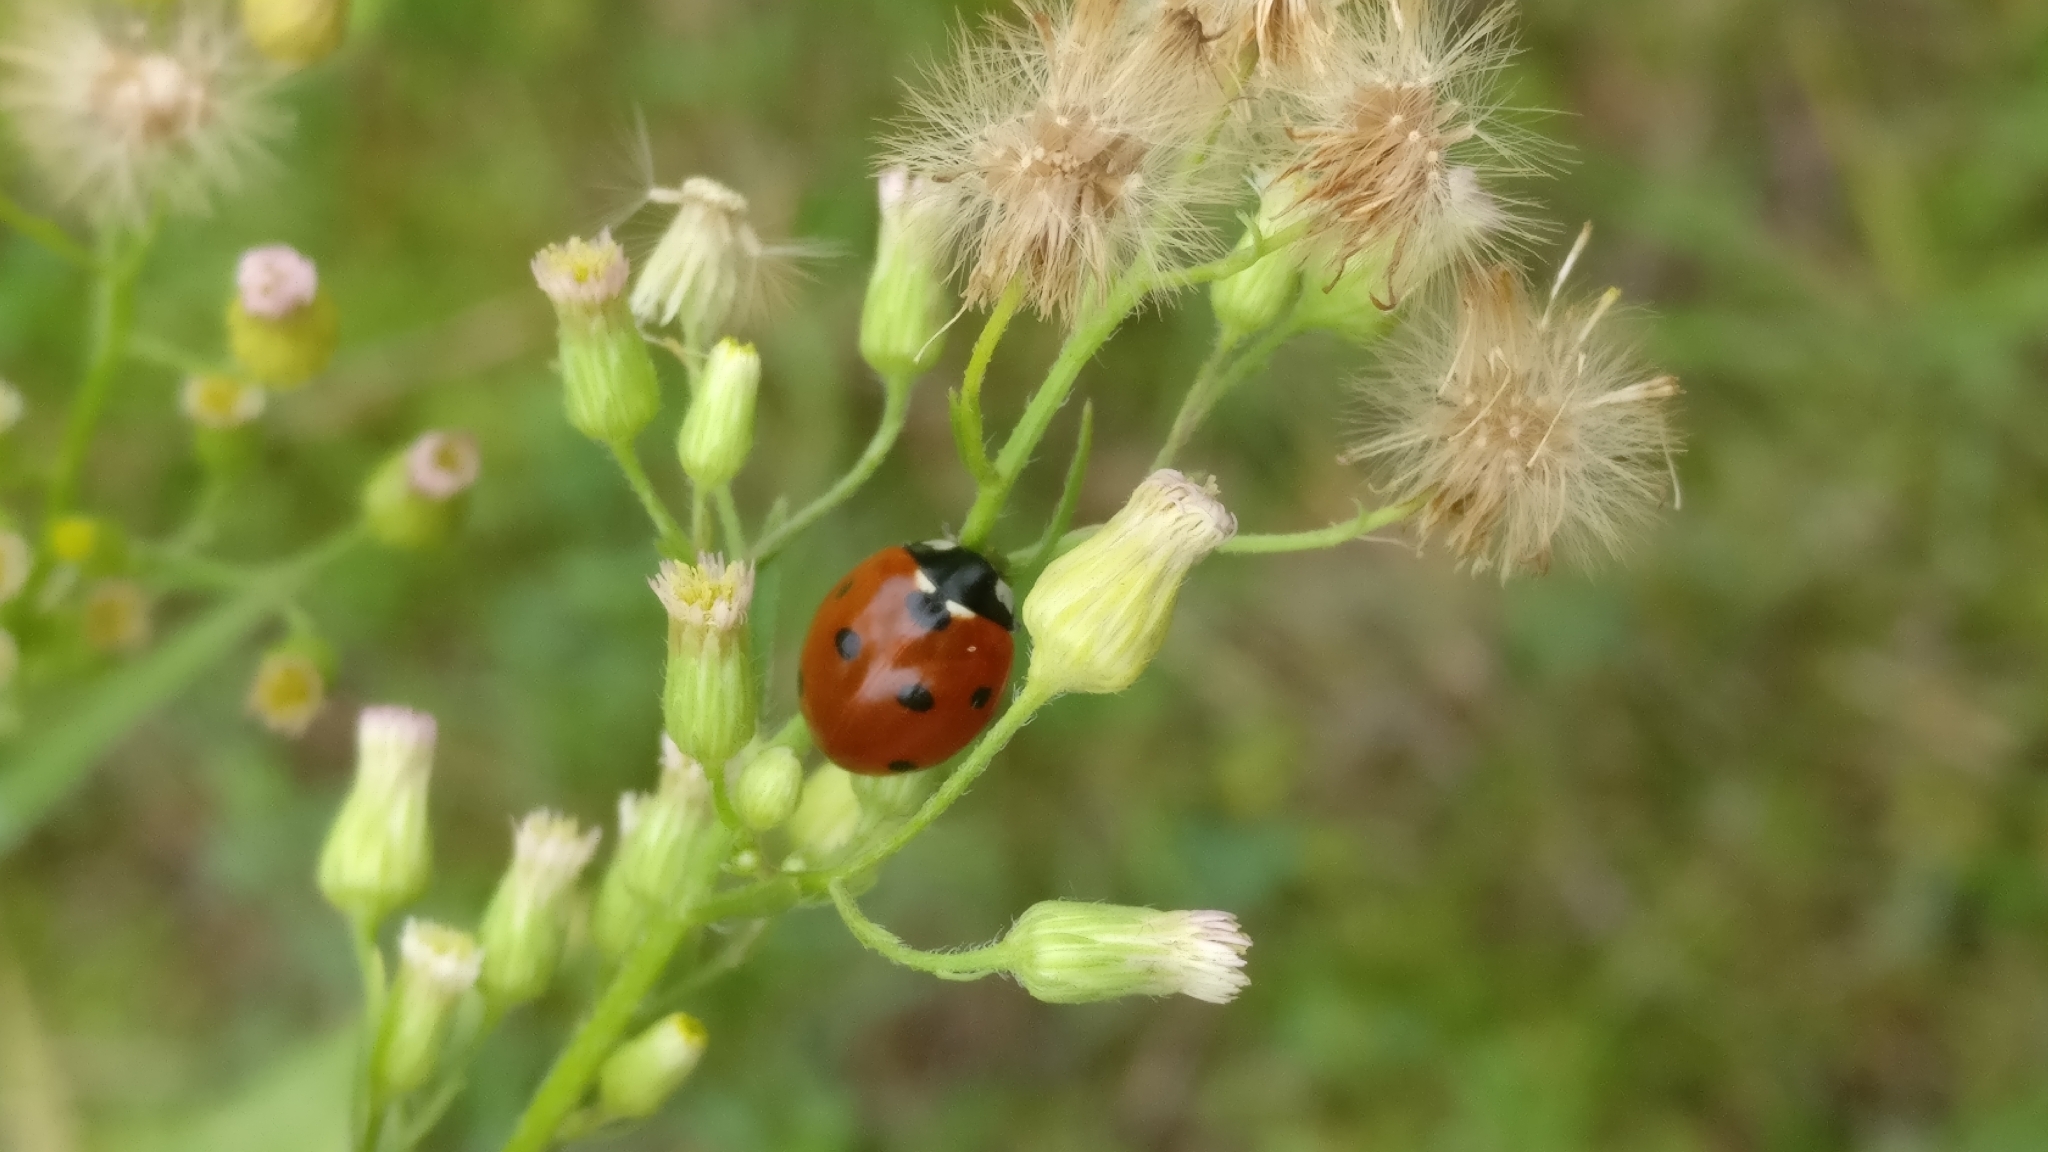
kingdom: Animalia
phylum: Arthropoda
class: Insecta
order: Coleoptera
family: Coccinellidae
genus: Coccinella
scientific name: Coccinella septempunctata
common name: Sevenspotted lady beetle
